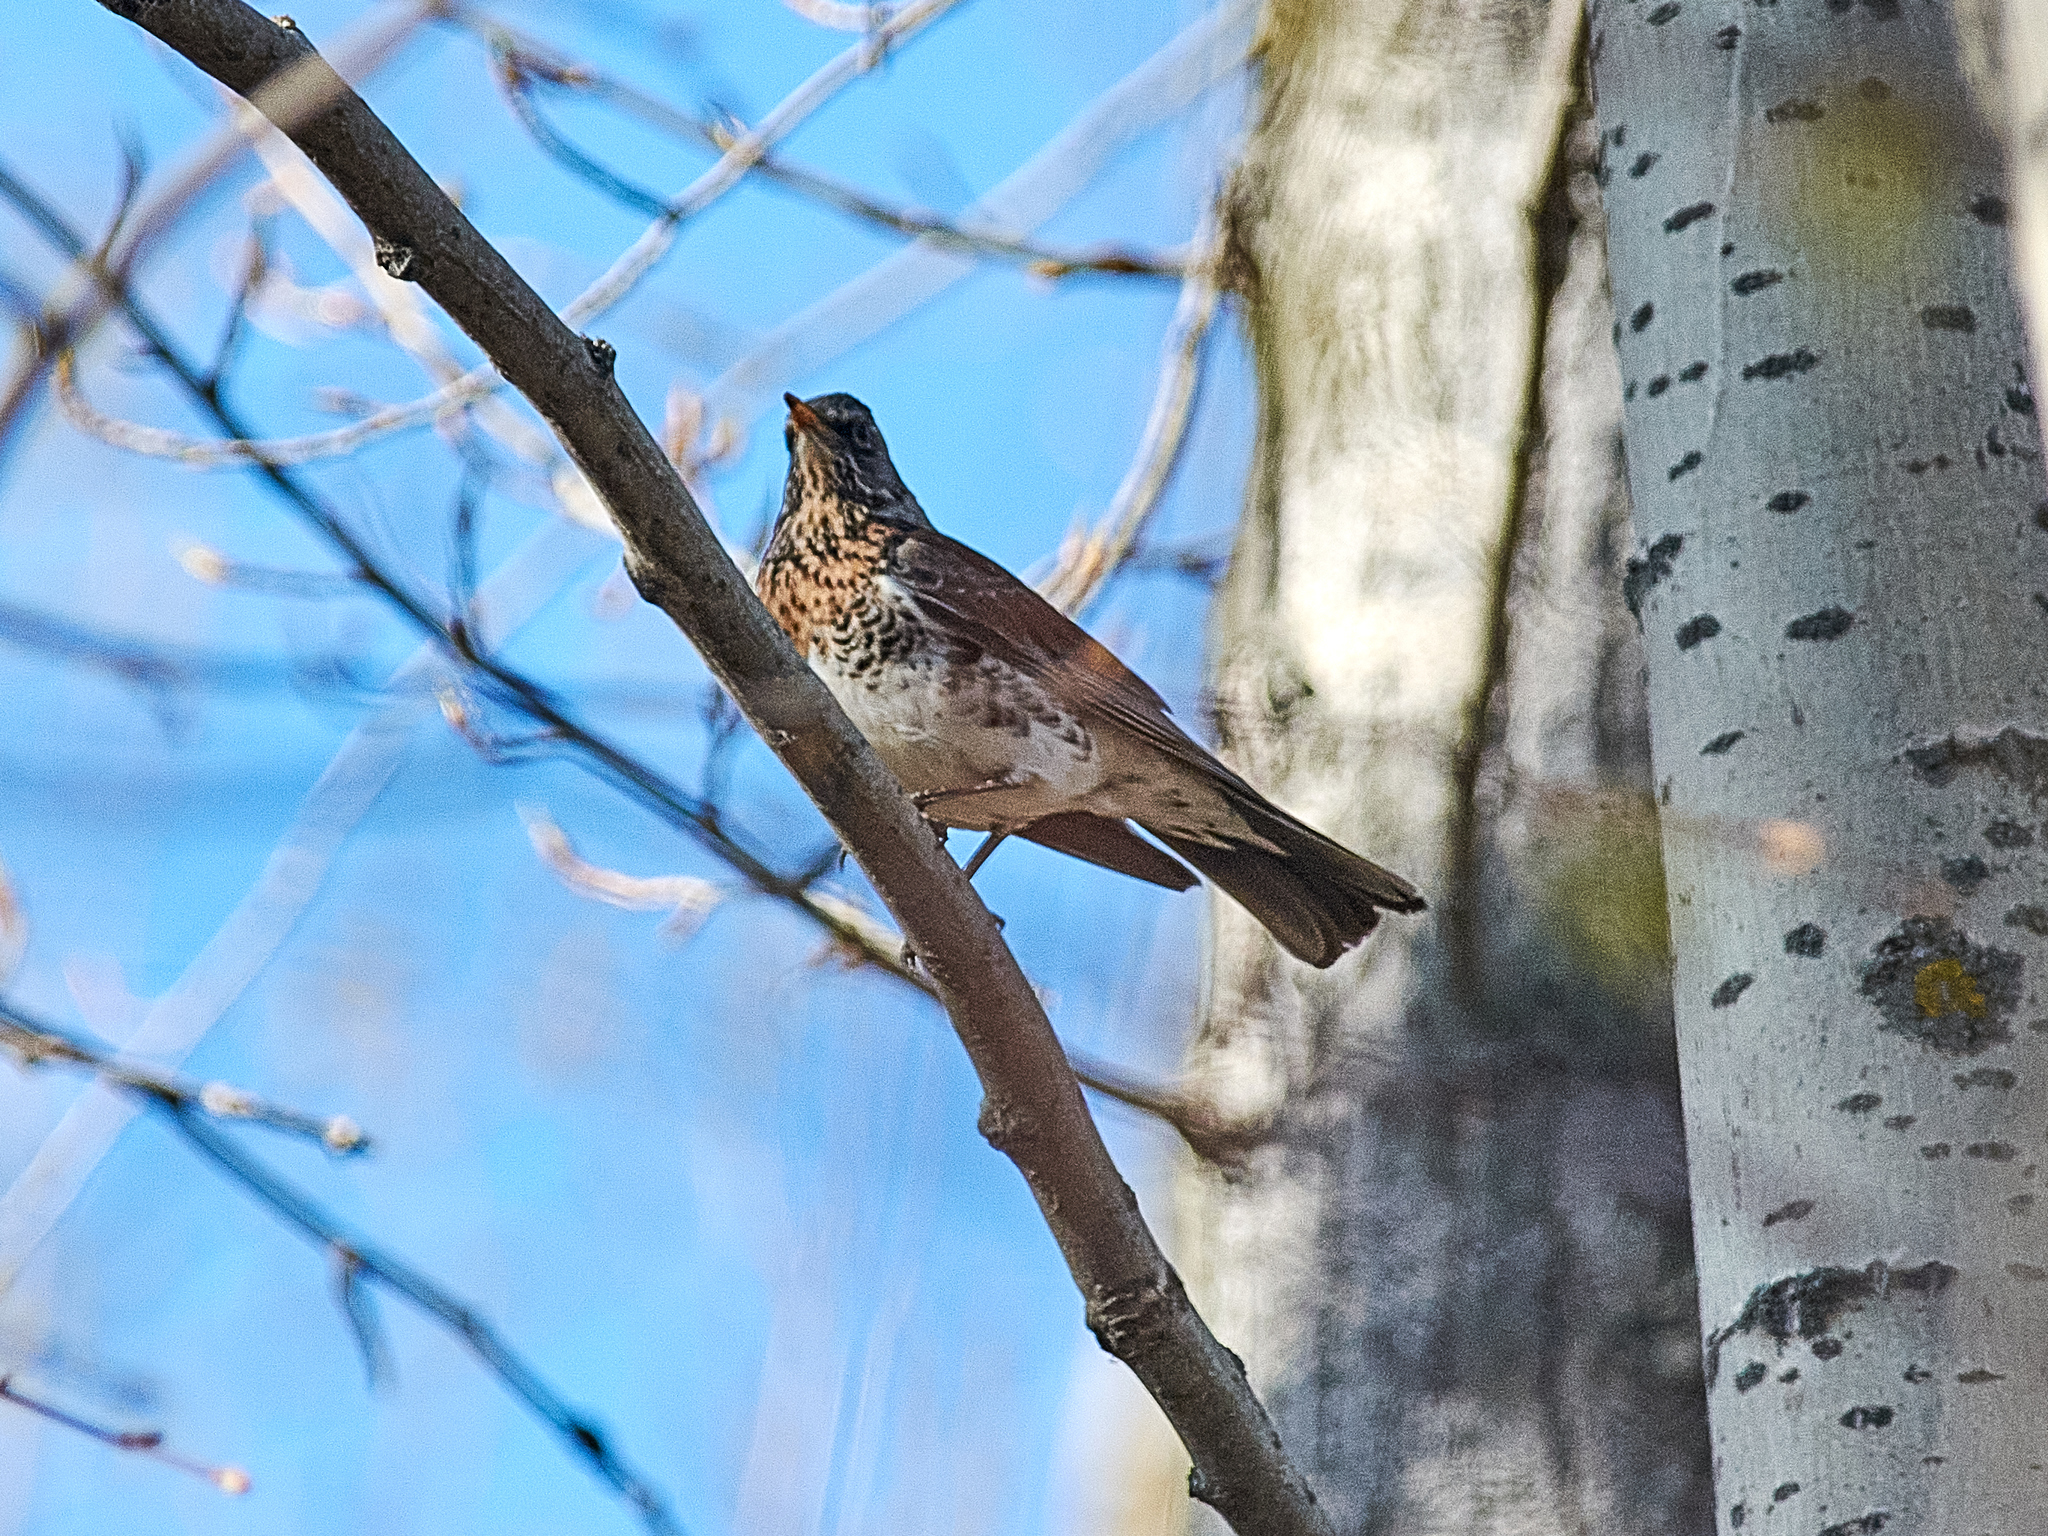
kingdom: Animalia
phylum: Chordata
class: Aves
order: Passeriformes
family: Turdidae
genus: Turdus
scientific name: Turdus pilaris
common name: Fieldfare
